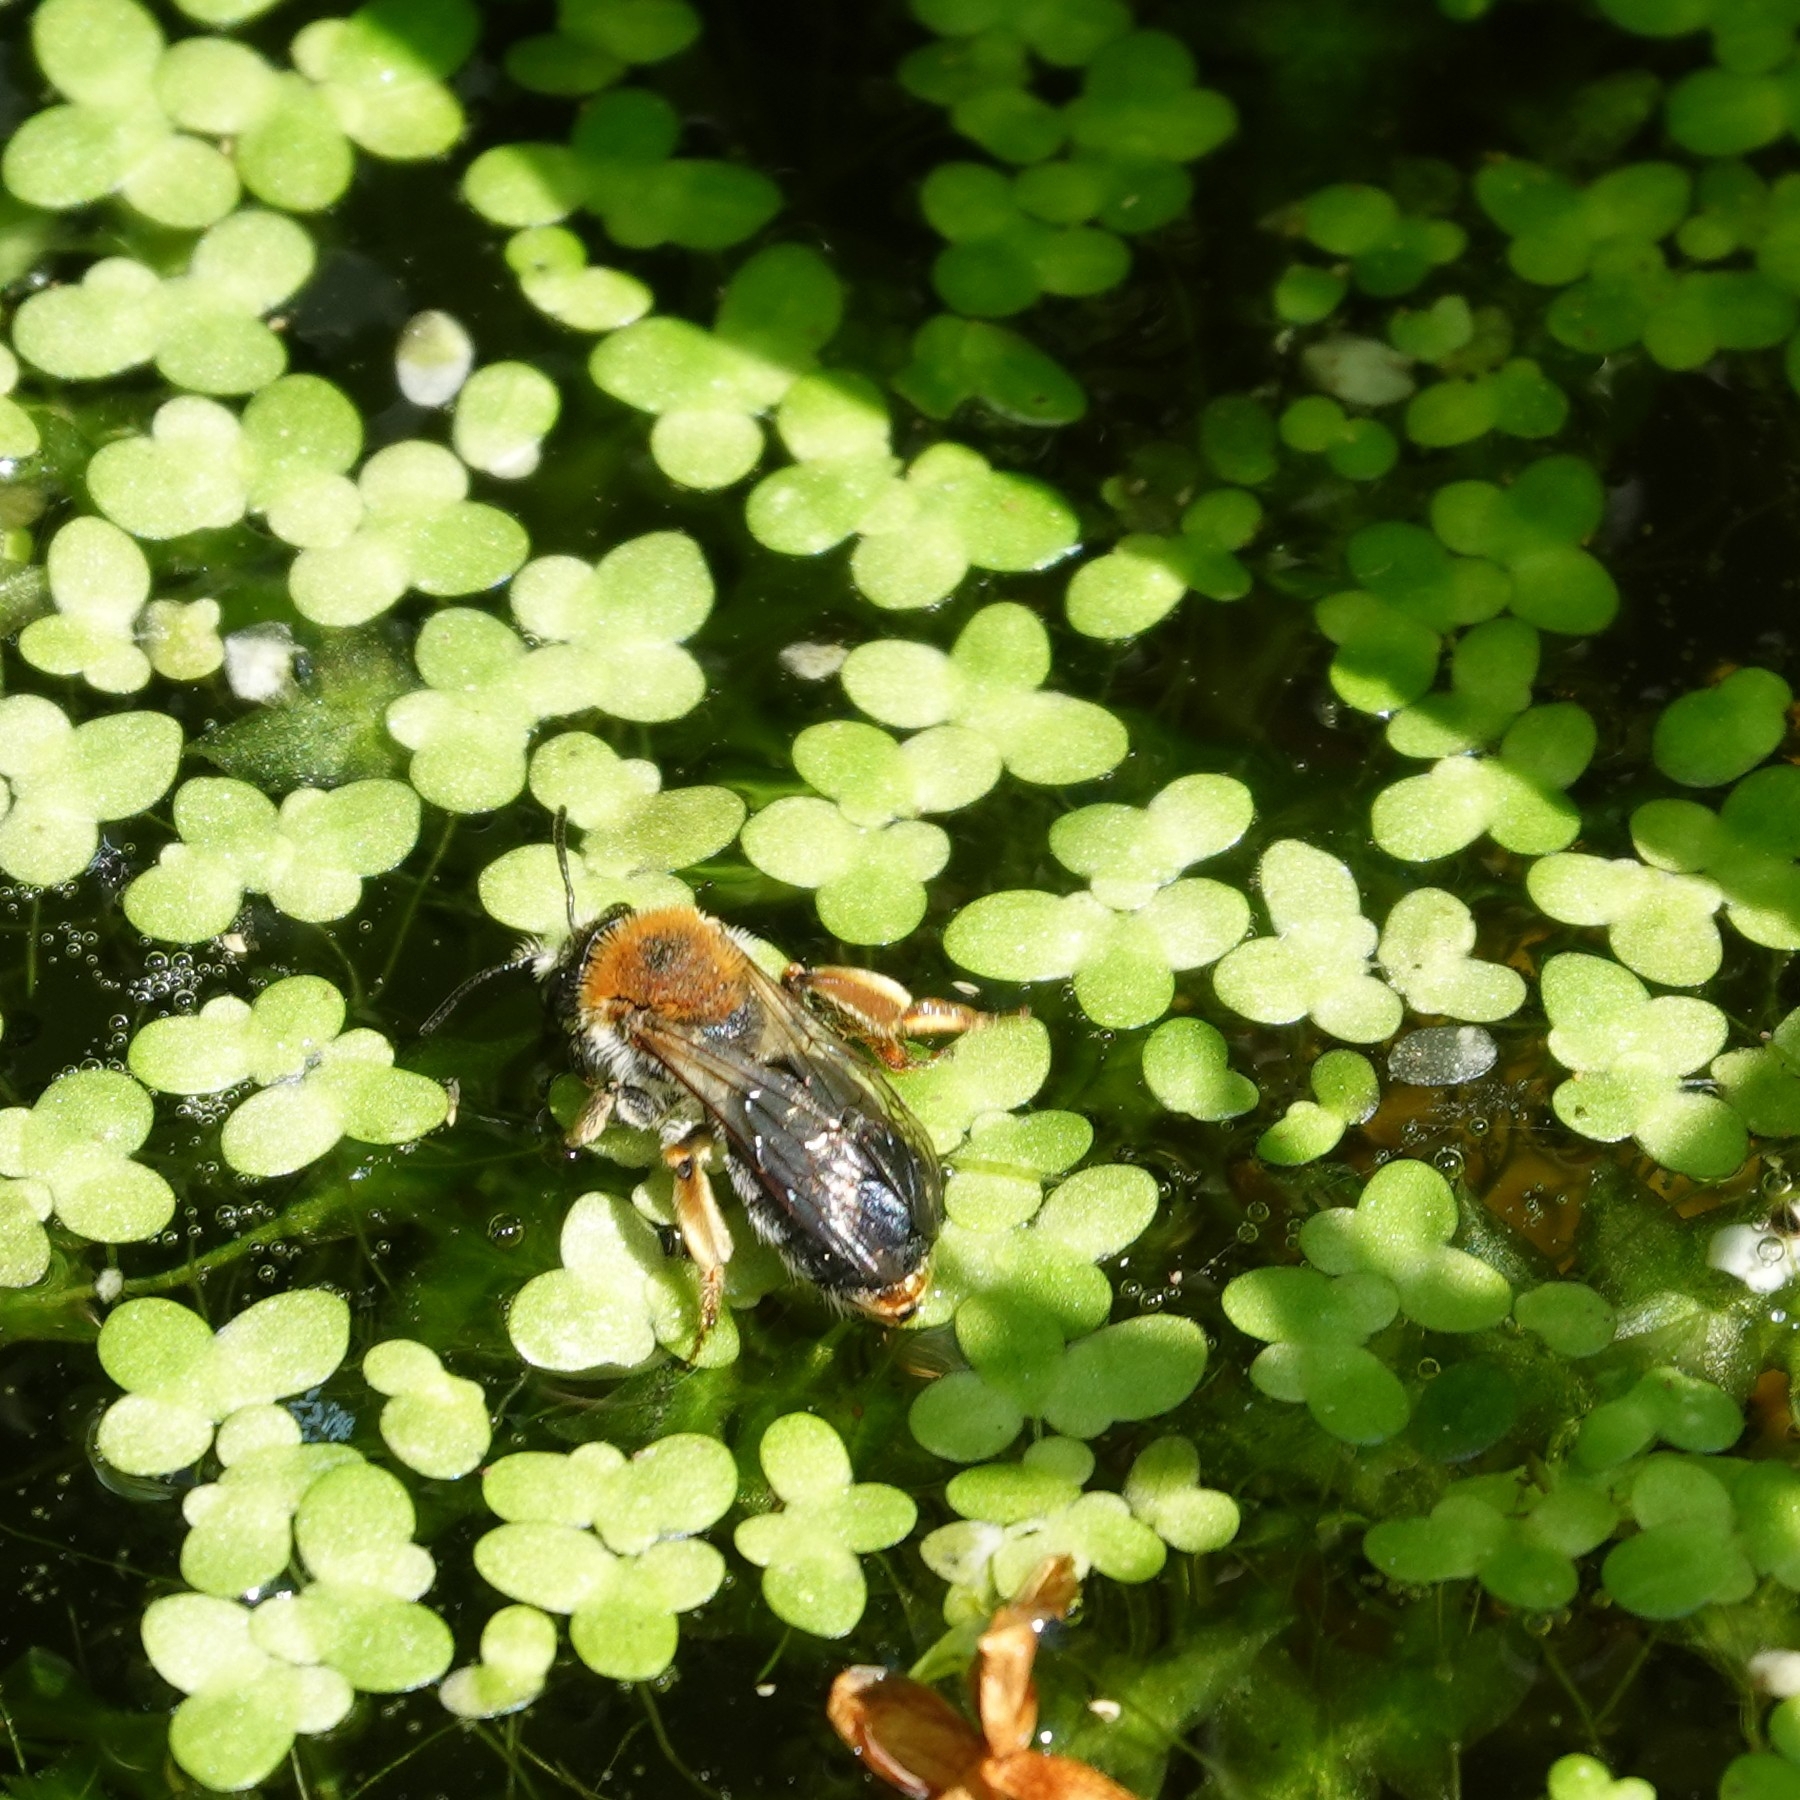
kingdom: Animalia
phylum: Arthropoda
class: Insecta
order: Hymenoptera
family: Andrenidae
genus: Andrena
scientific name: Andrena haemorrhoa
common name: Early mining bee
